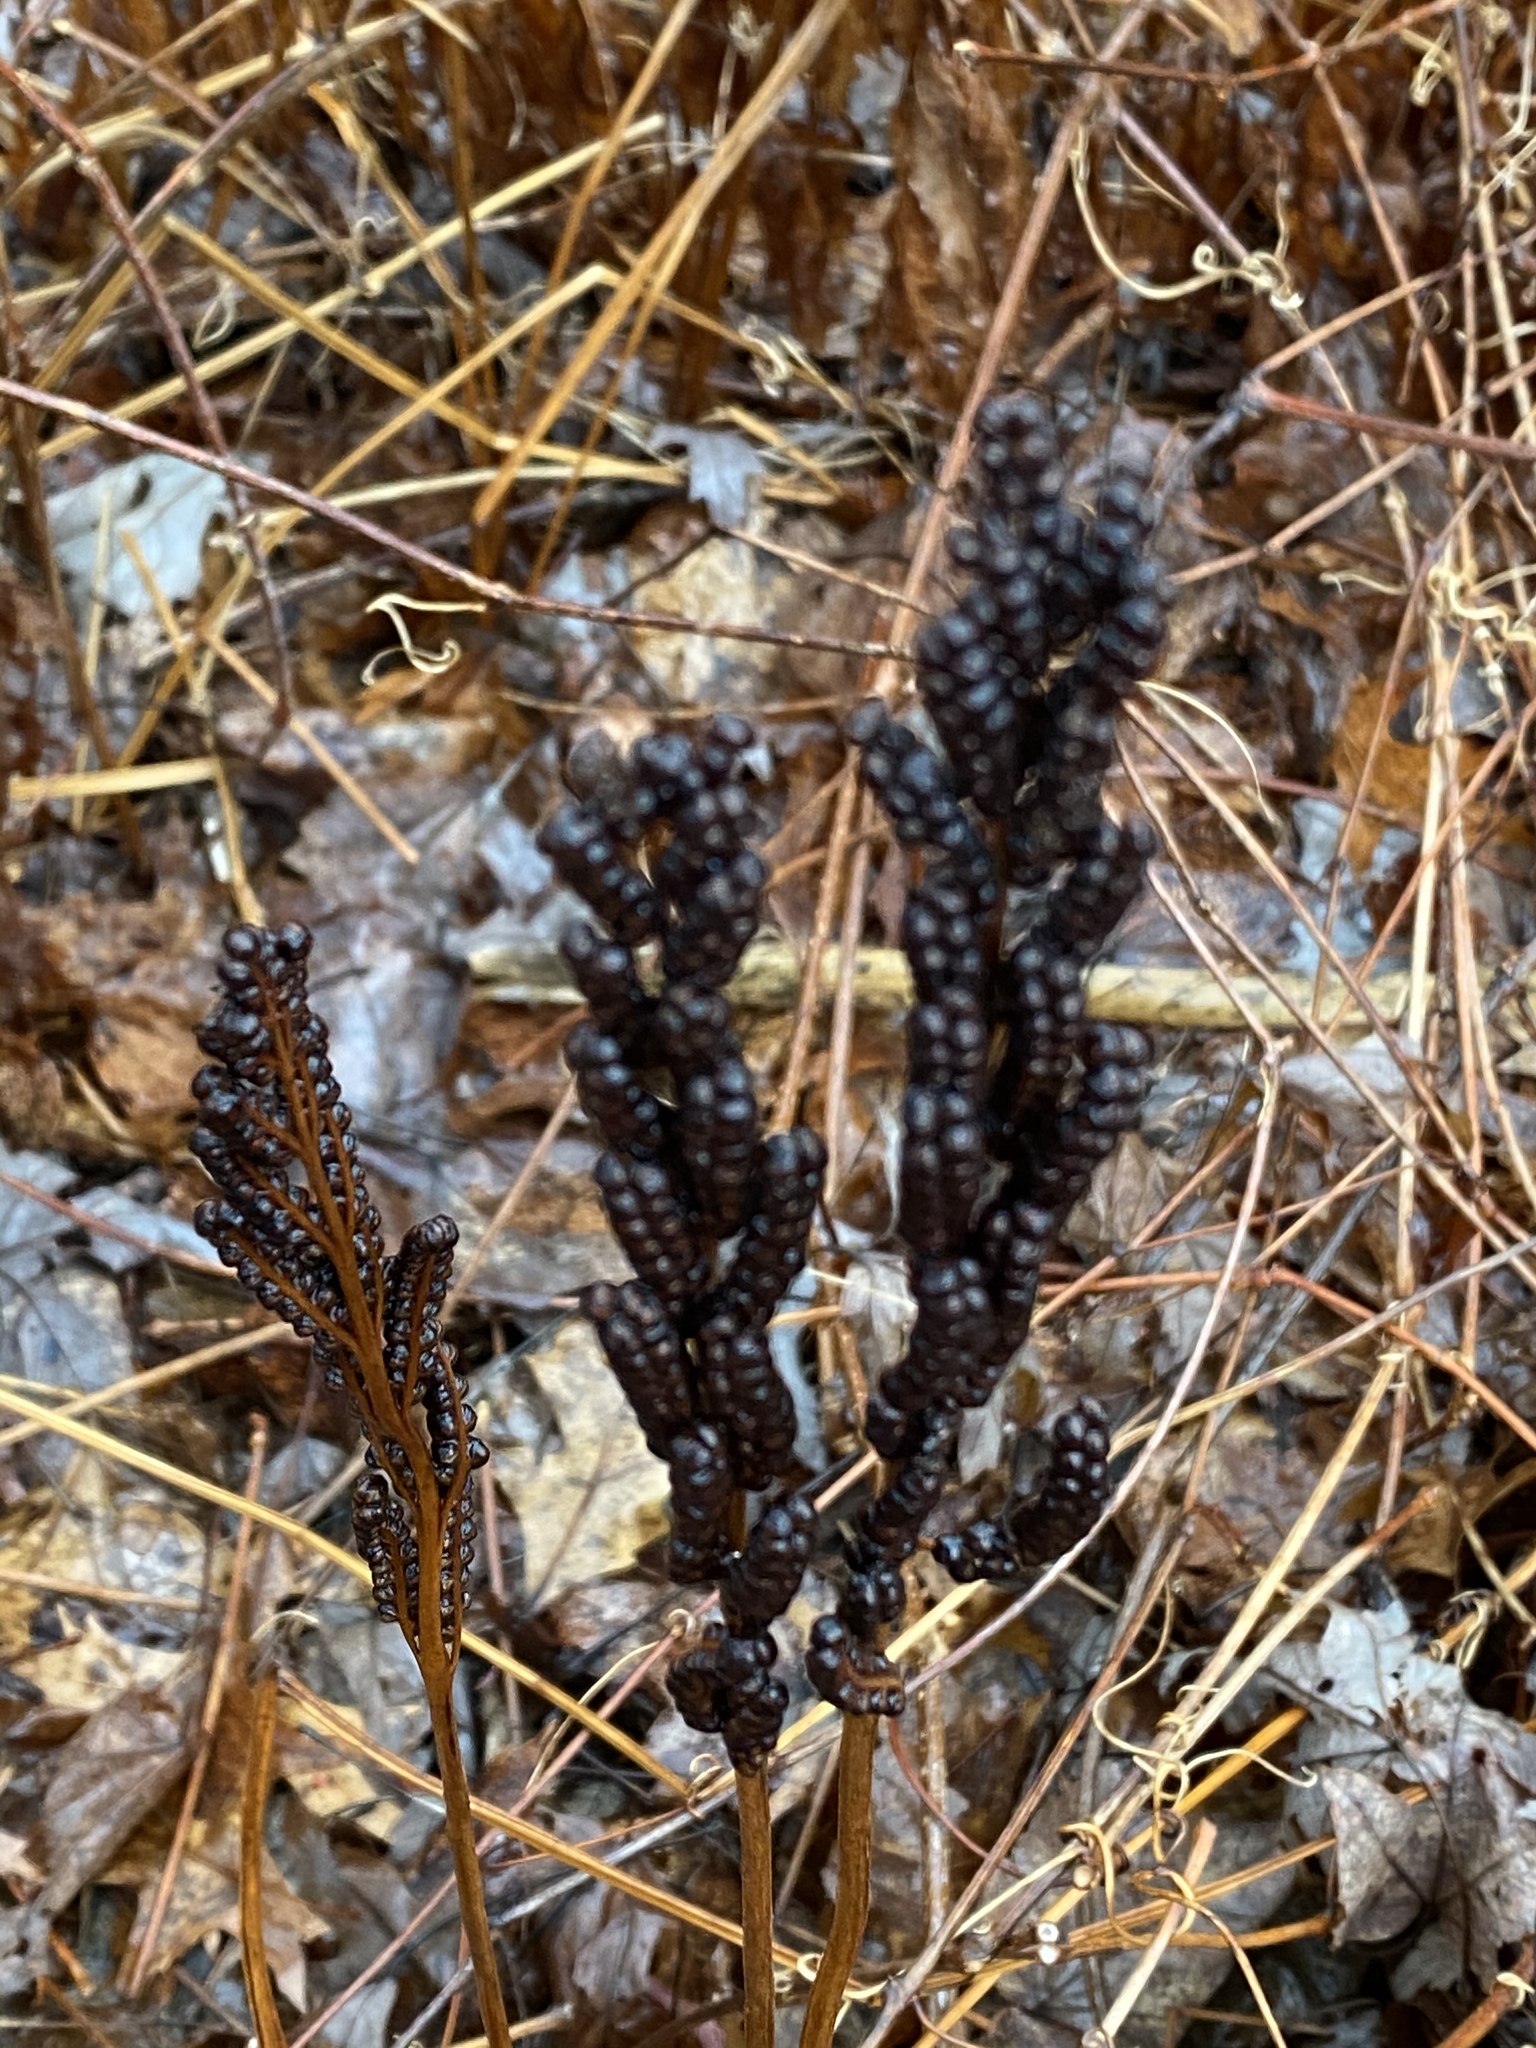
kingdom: Plantae
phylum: Tracheophyta
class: Polypodiopsida
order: Polypodiales
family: Onocleaceae
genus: Onoclea
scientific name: Onoclea sensibilis
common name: Sensitive fern
